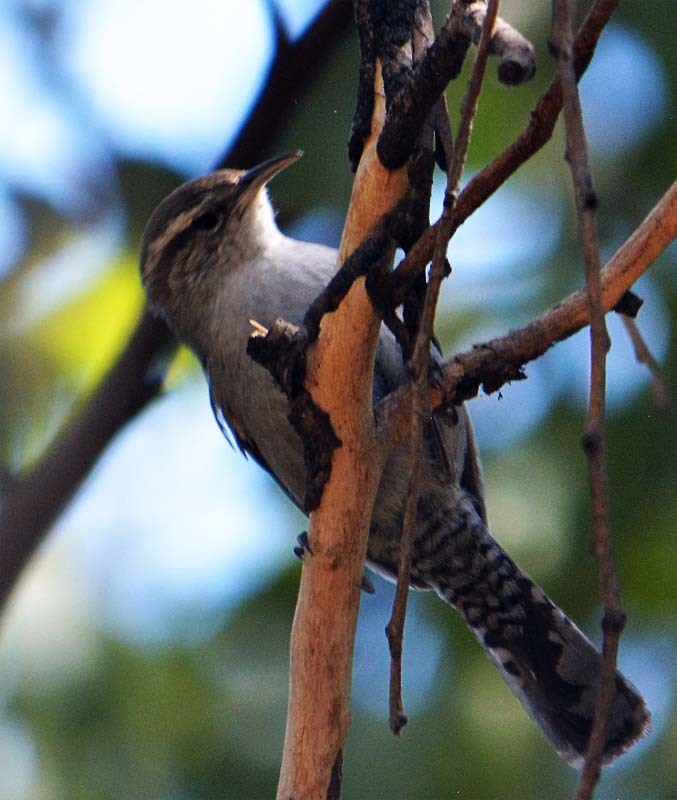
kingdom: Animalia
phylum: Chordata
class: Aves
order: Passeriformes
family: Troglodytidae
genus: Thryomanes
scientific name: Thryomanes bewickii
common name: Bewick's wren
